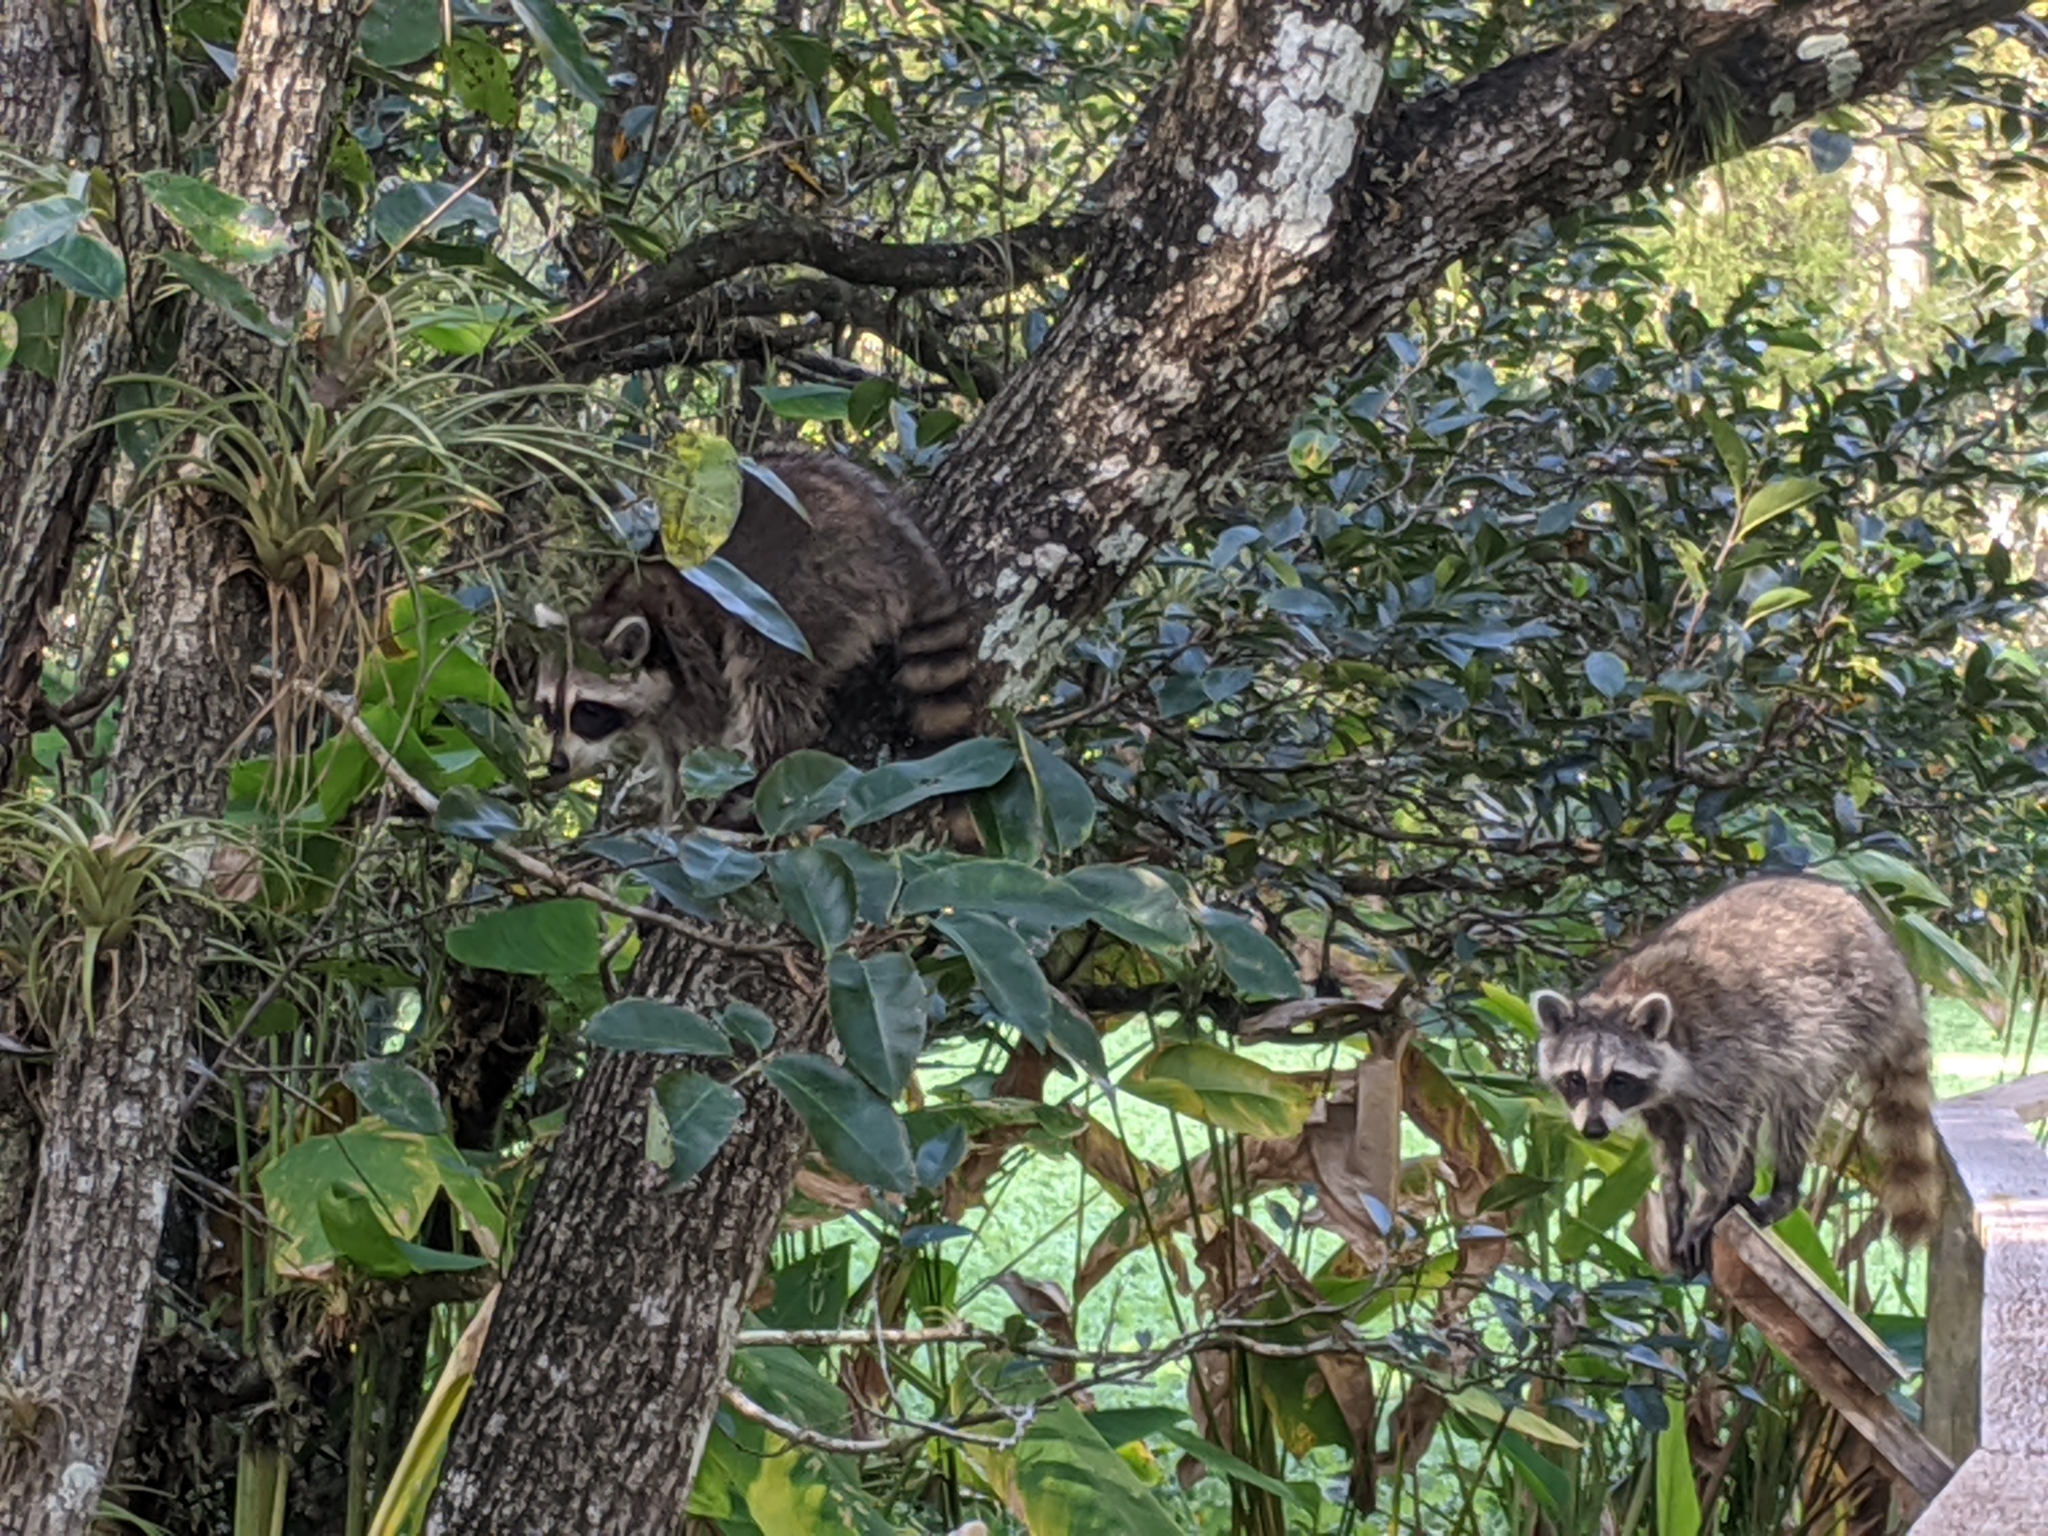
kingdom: Animalia
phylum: Chordata
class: Mammalia
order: Carnivora
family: Procyonidae
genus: Procyon
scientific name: Procyon lotor
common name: Raccoon
